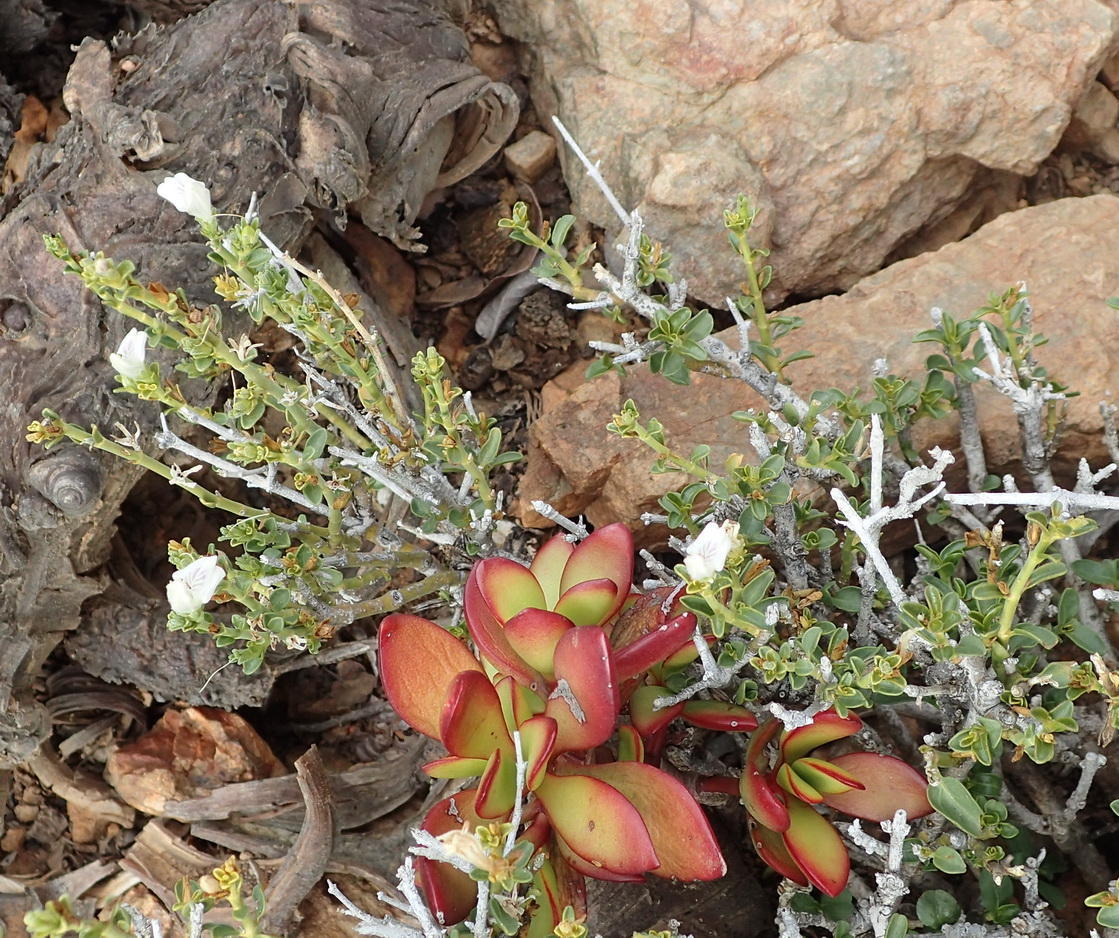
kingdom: Plantae
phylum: Tracheophyta
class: Magnoliopsida
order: Lamiales
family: Acanthaceae
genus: Pogonospermum
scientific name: Pogonospermum
